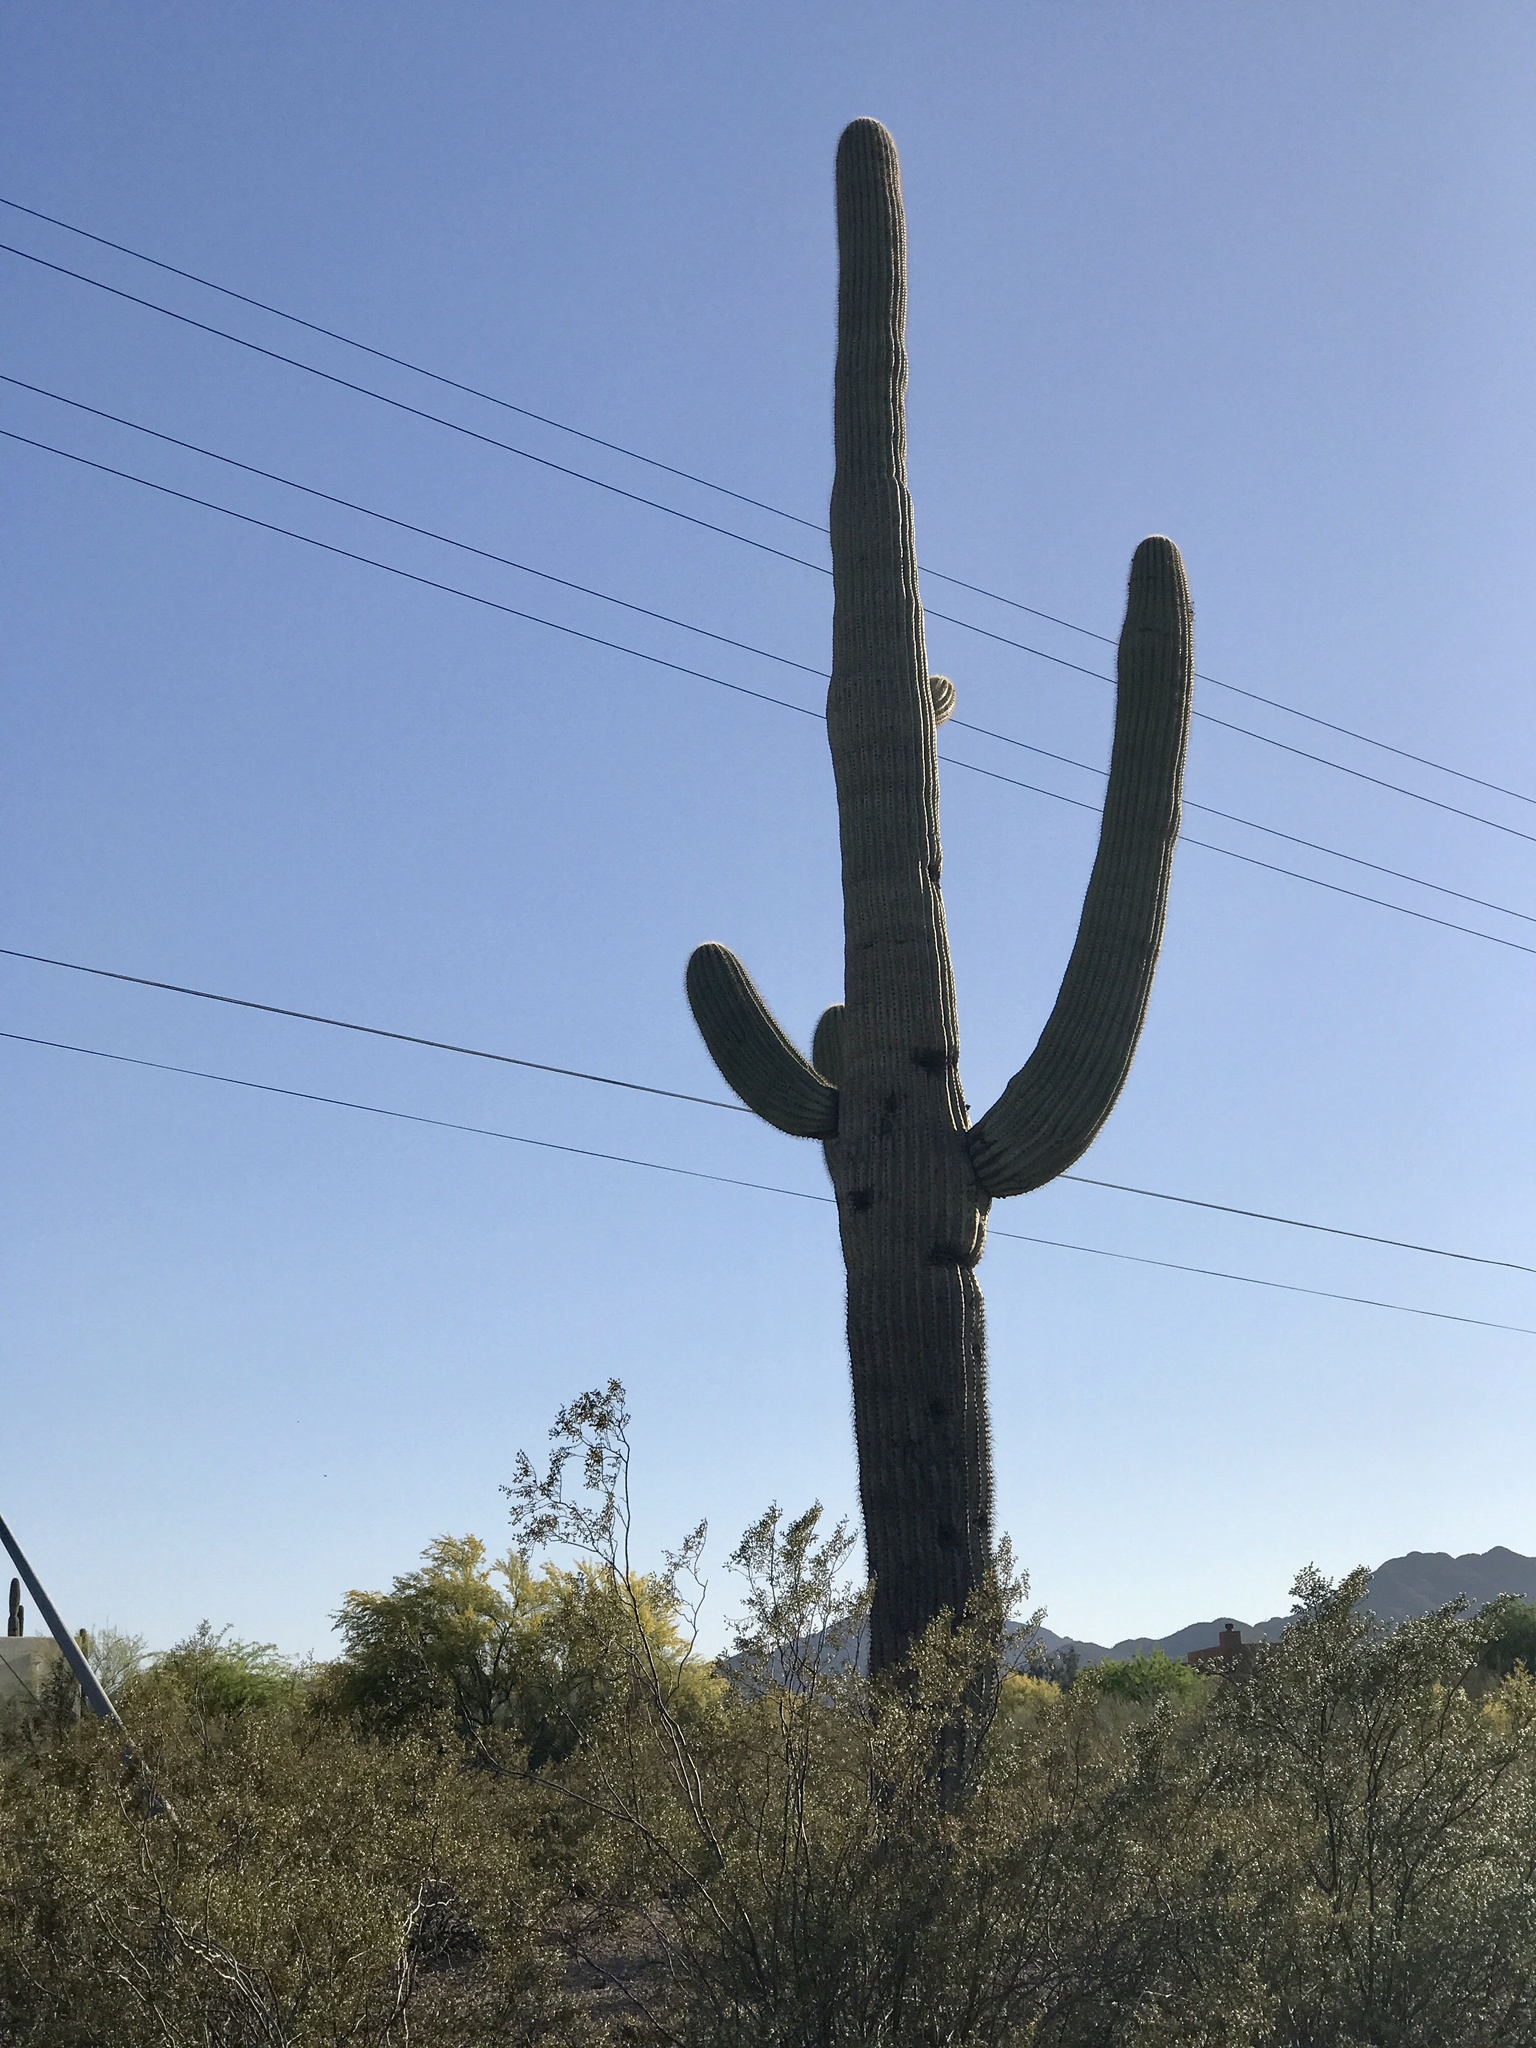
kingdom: Plantae
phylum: Tracheophyta
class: Magnoliopsida
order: Caryophyllales
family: Cactaceae
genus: Carnegiea
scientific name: Carnegiea gigantea
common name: Saguaro
